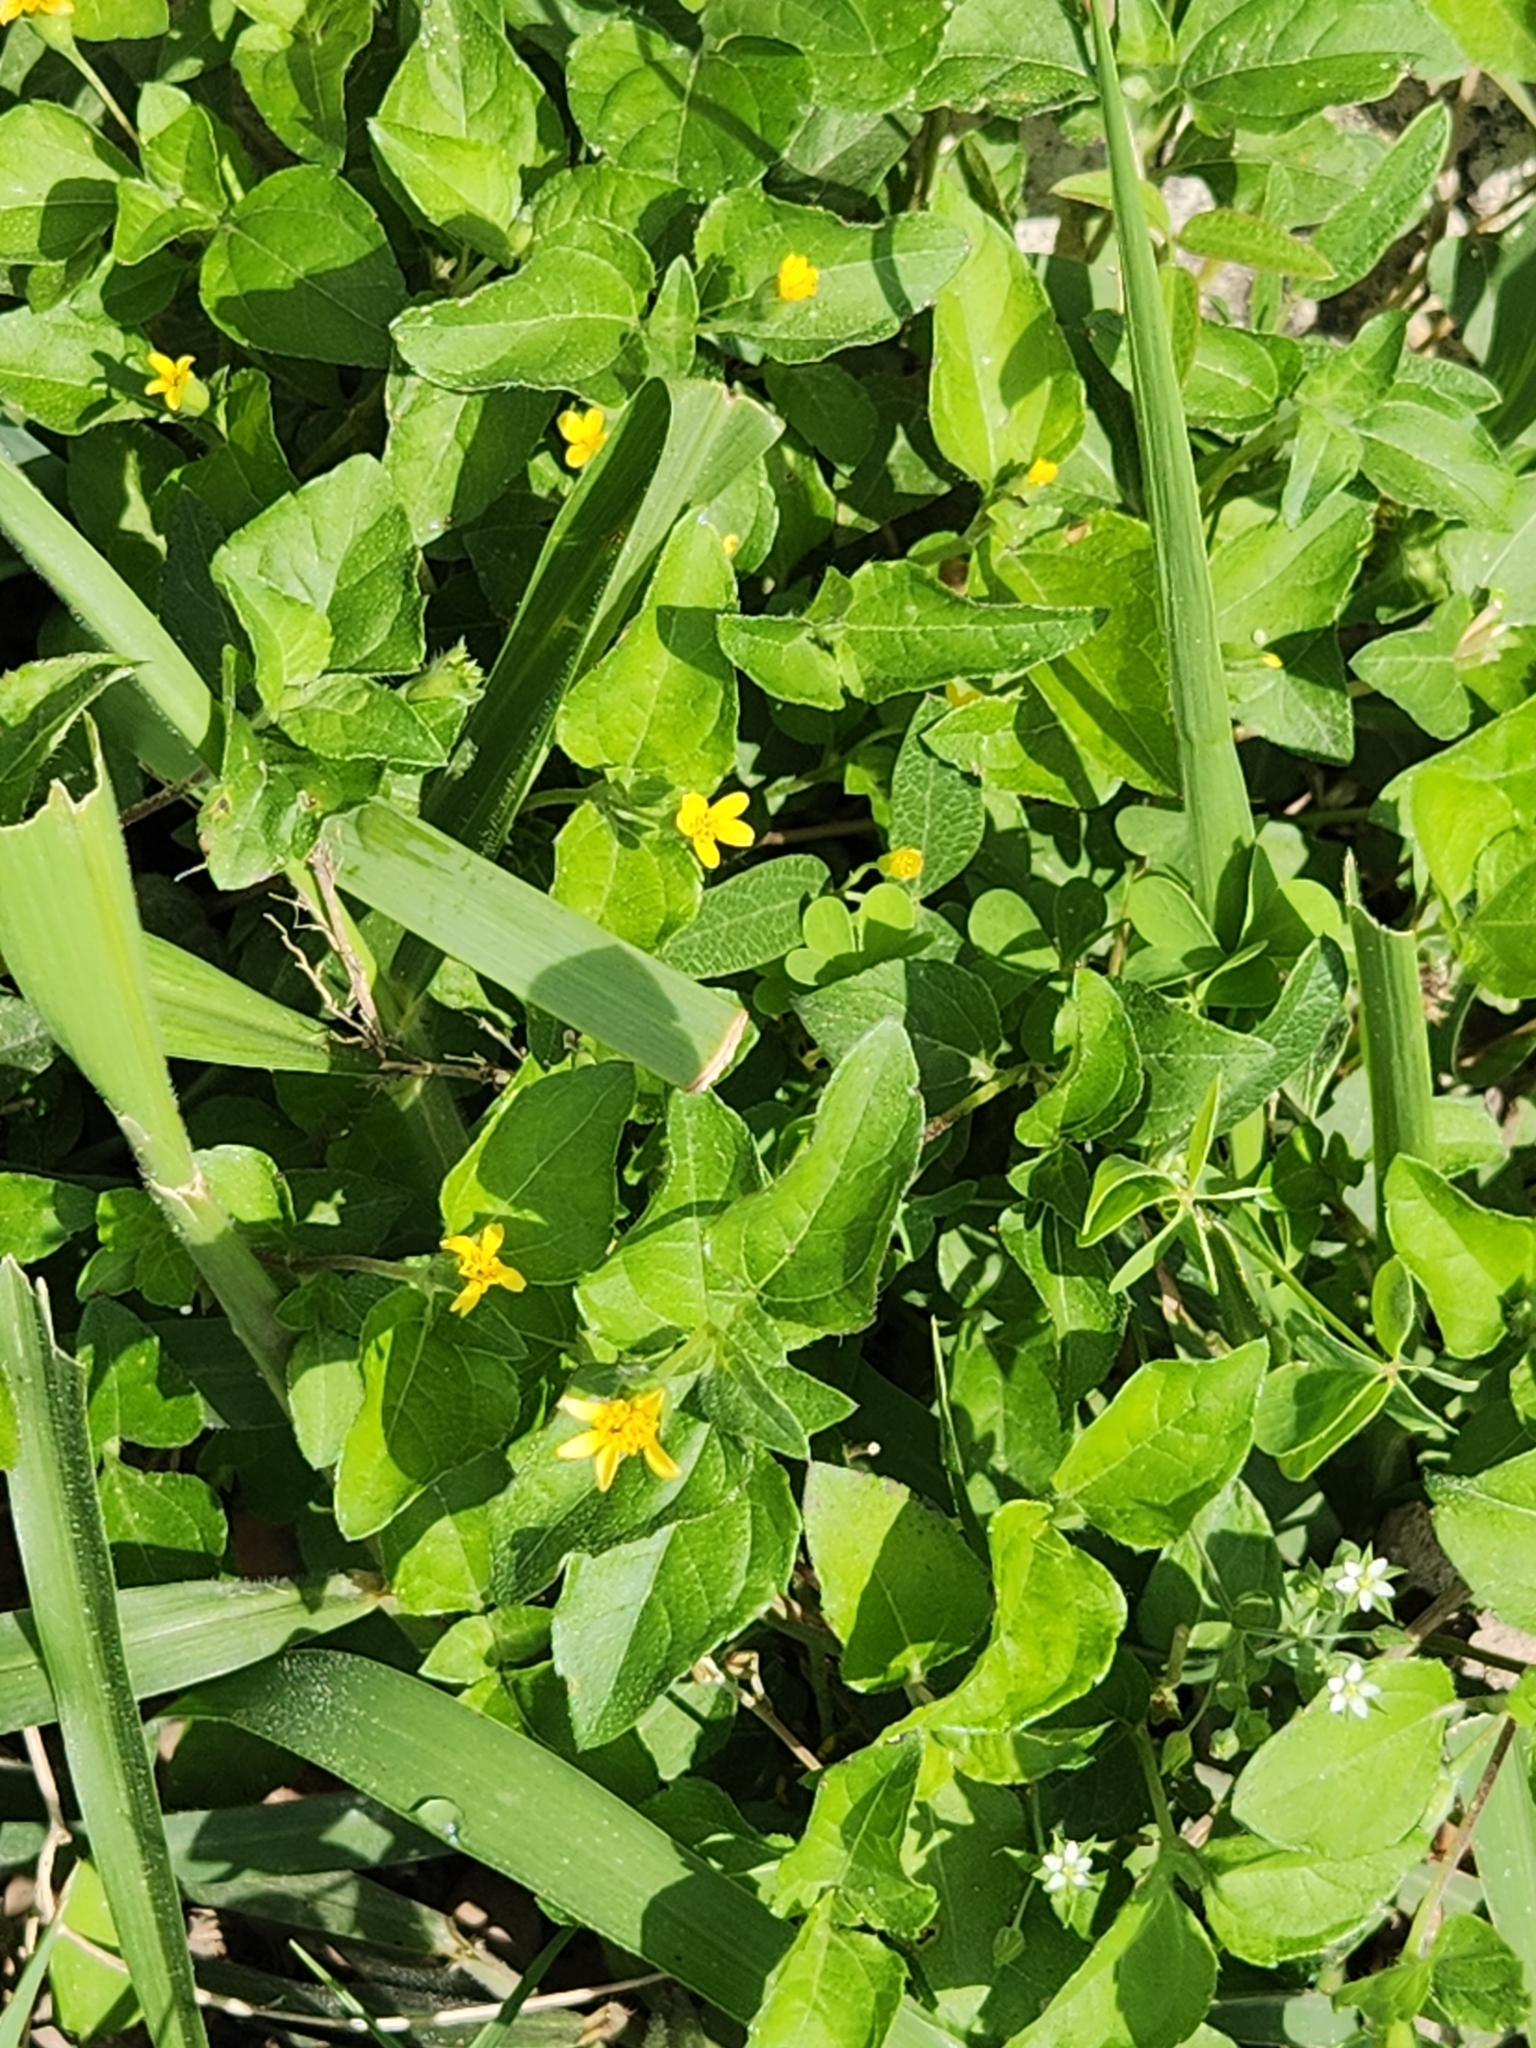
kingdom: Plantae
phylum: Tracheophyta
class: Magnoliopsida
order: Asterales
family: Asteraceae
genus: Calyptocarpus
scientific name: Calyptocarpus vialis
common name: Straggler daisy
